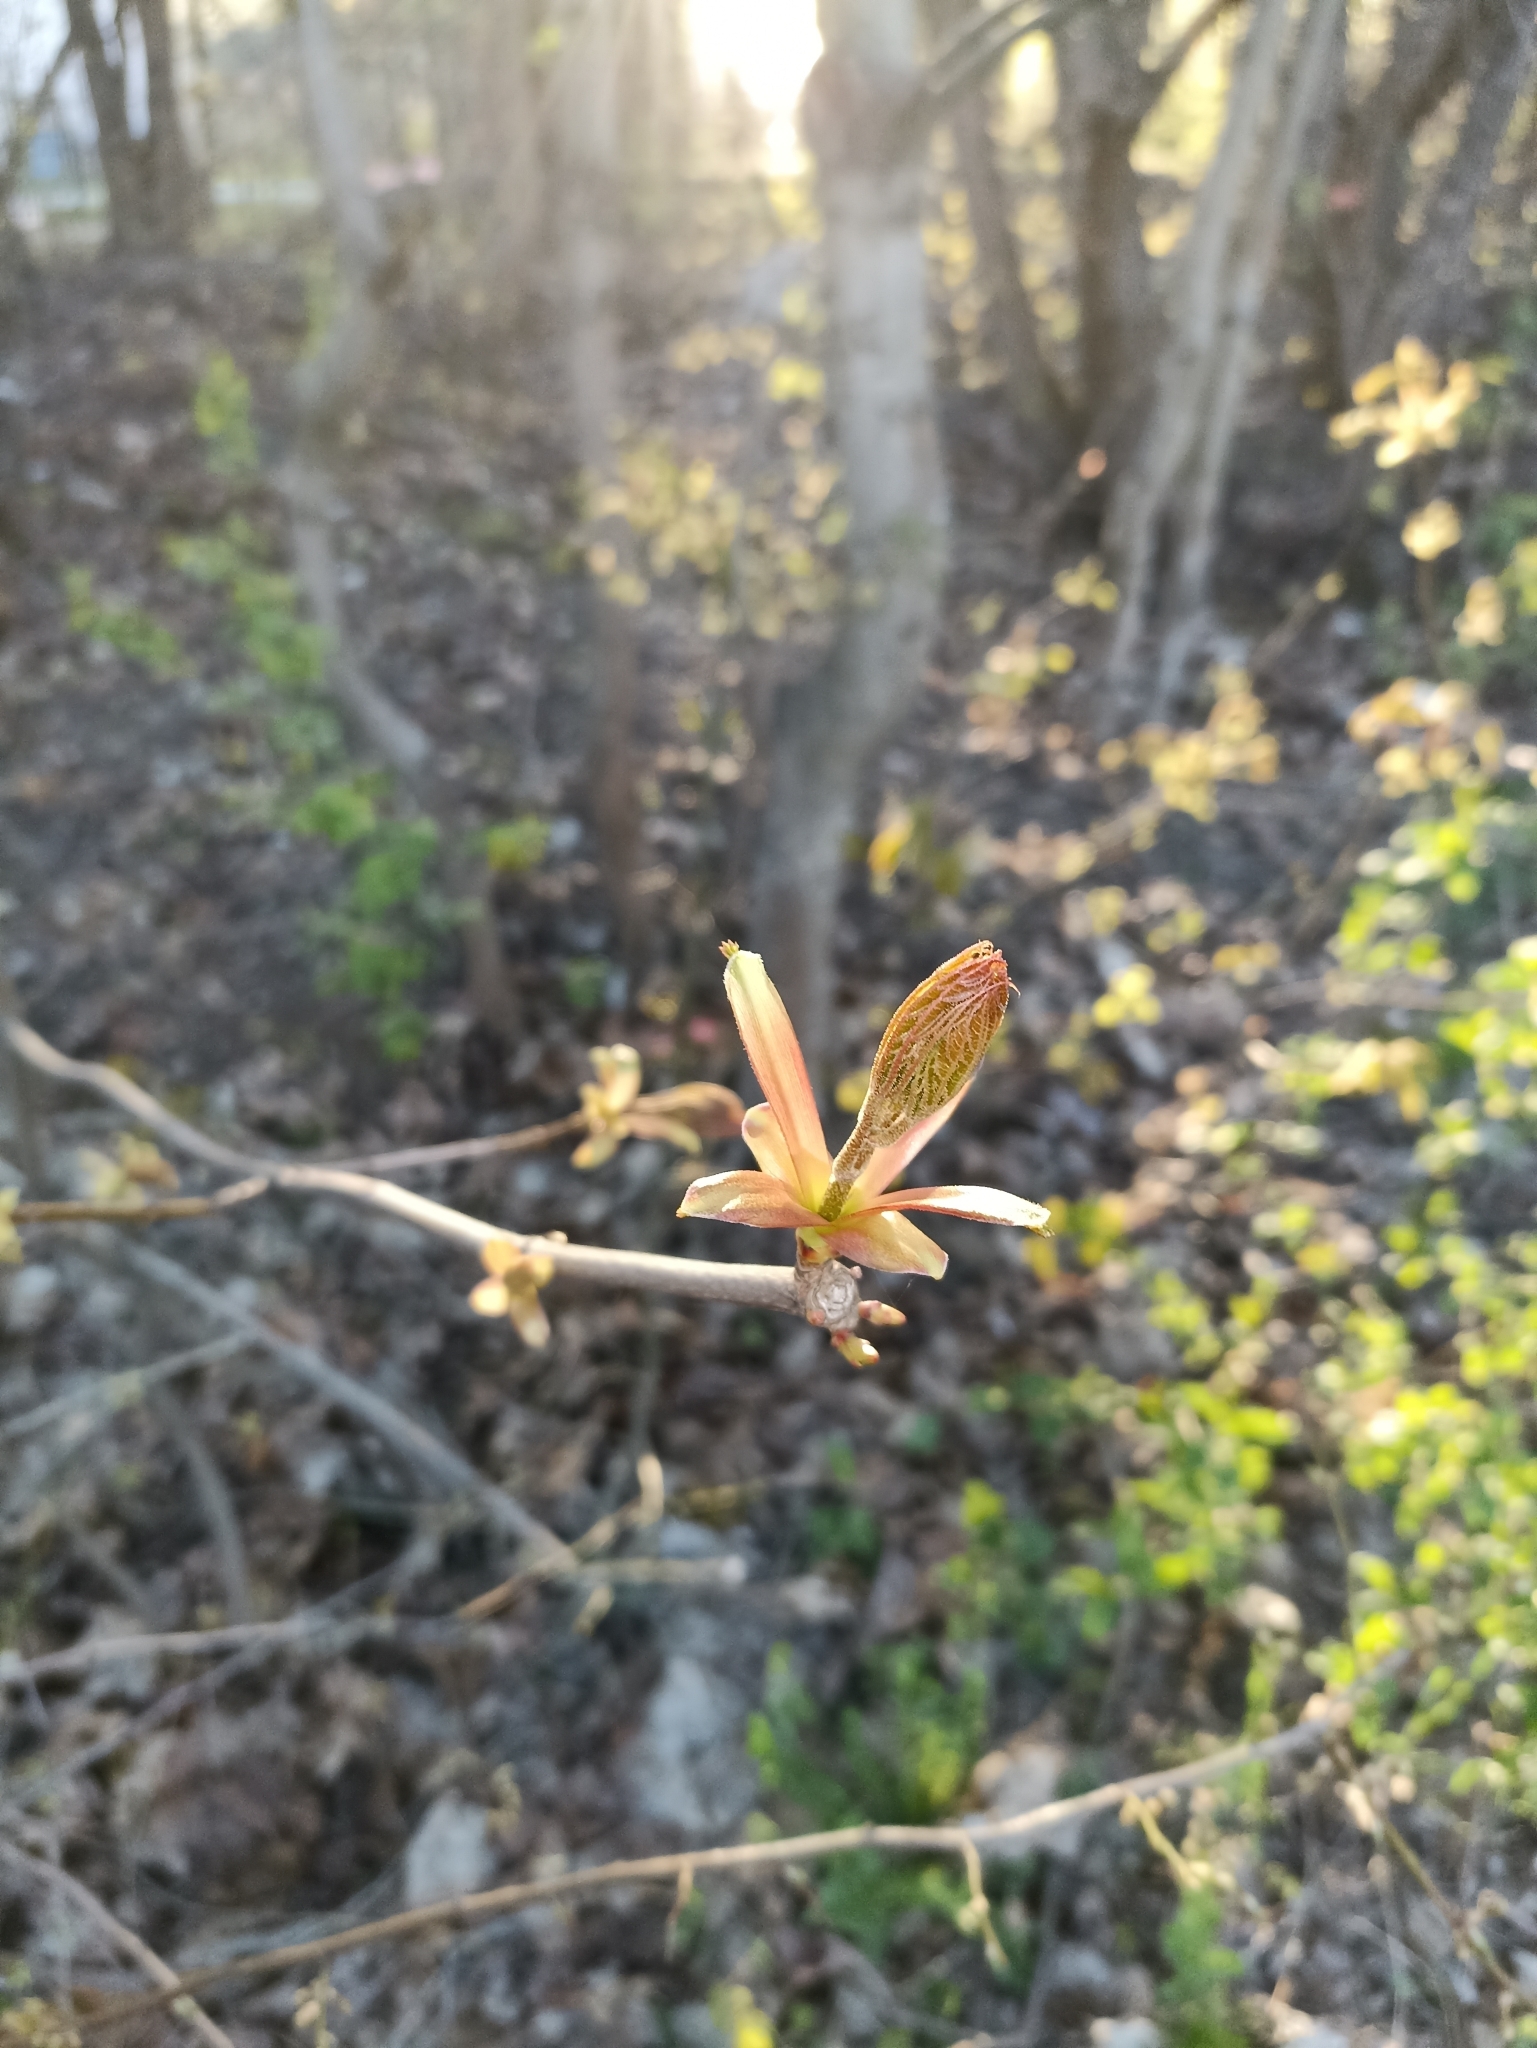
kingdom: Plantae
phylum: Tracheophyta
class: Magnoliopsida
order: Sapindales
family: Sapindaceae
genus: Acer
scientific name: Acer platanoides
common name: Norway maple
